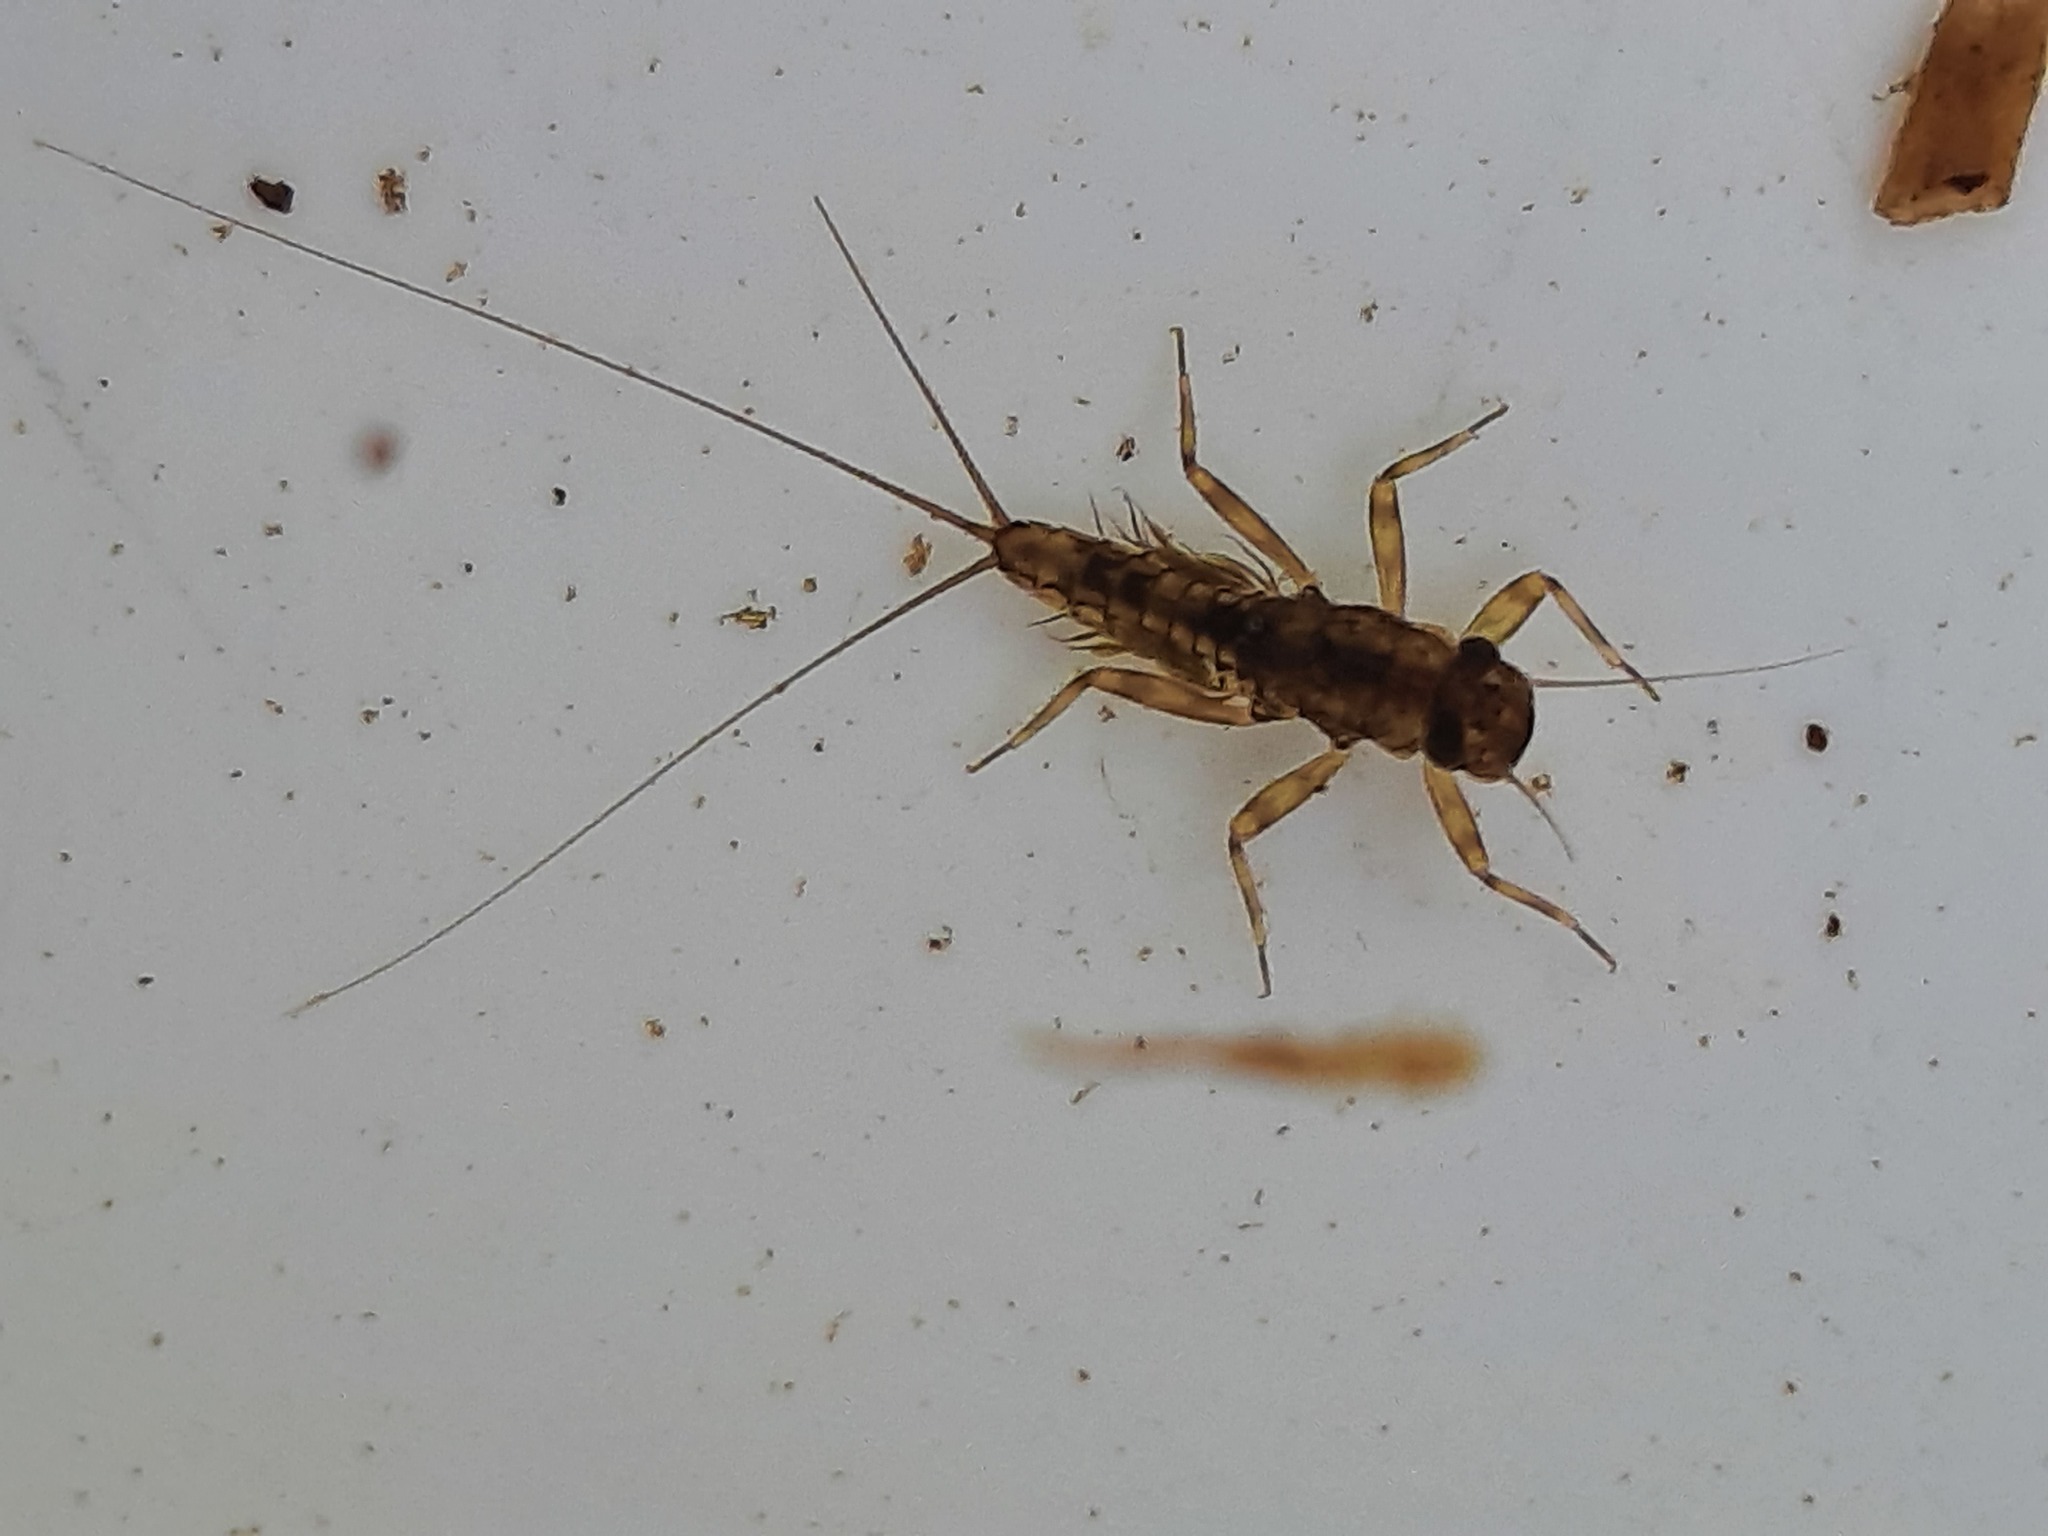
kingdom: Animalia
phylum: Arthropoda
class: Insecta
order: Ephemeroptera
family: Leptophlebiidae
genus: Zephlebia
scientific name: Zephlebia versicolor
